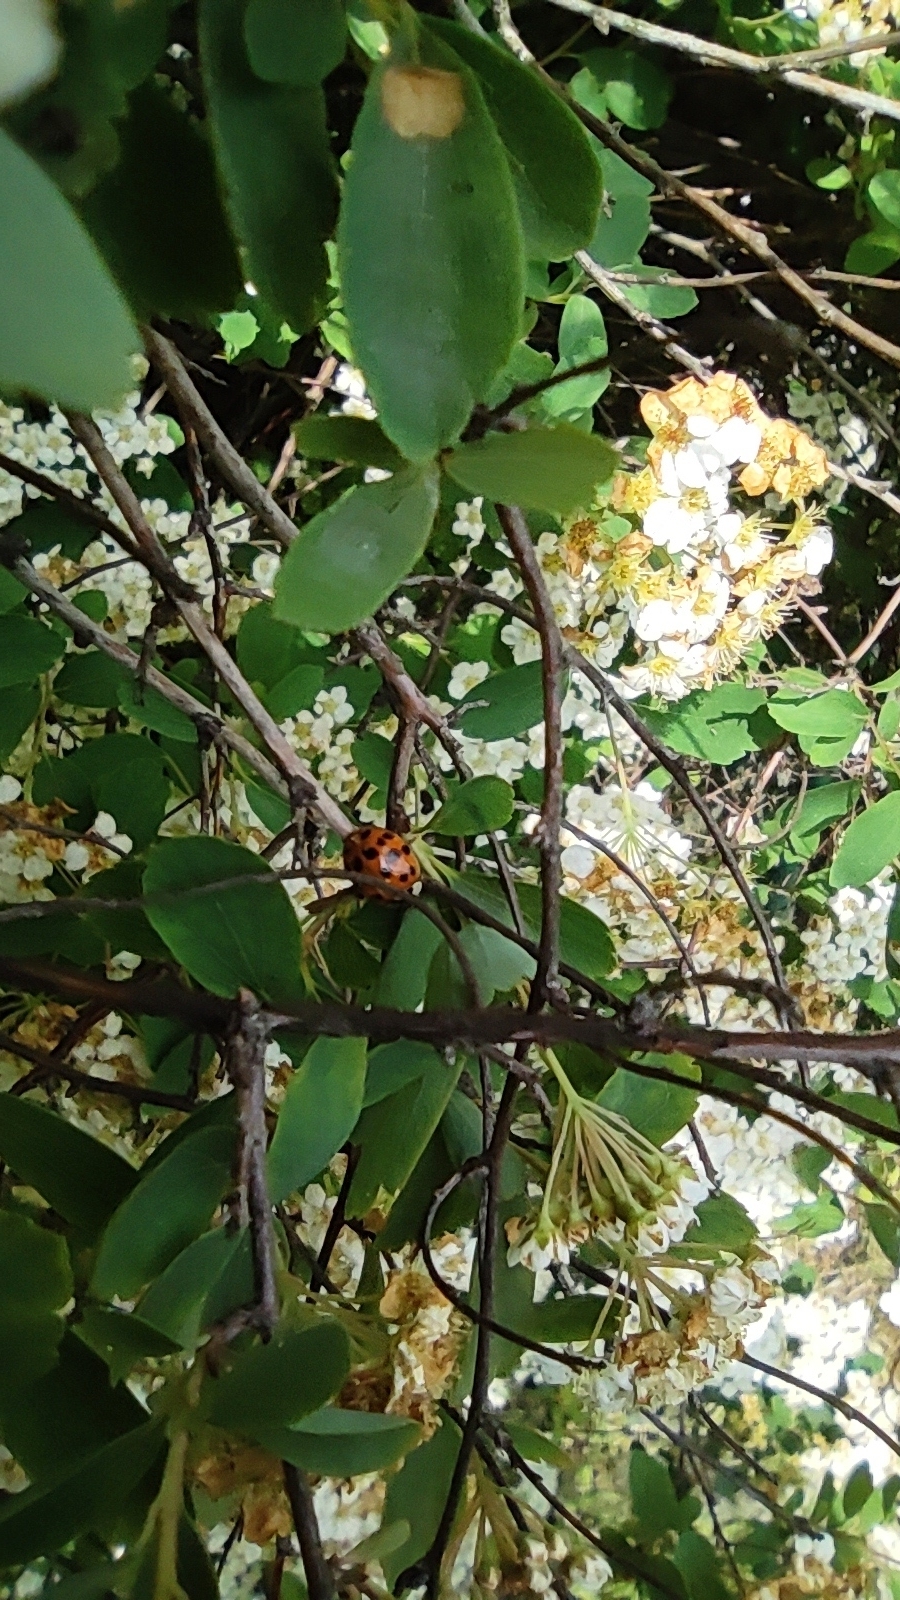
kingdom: Animalia
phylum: Arthropoda
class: Insecta
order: Coleoptera
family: Coccinellidae
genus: Harmonia
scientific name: Harmonia axyridis
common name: Harlequin ladybird
